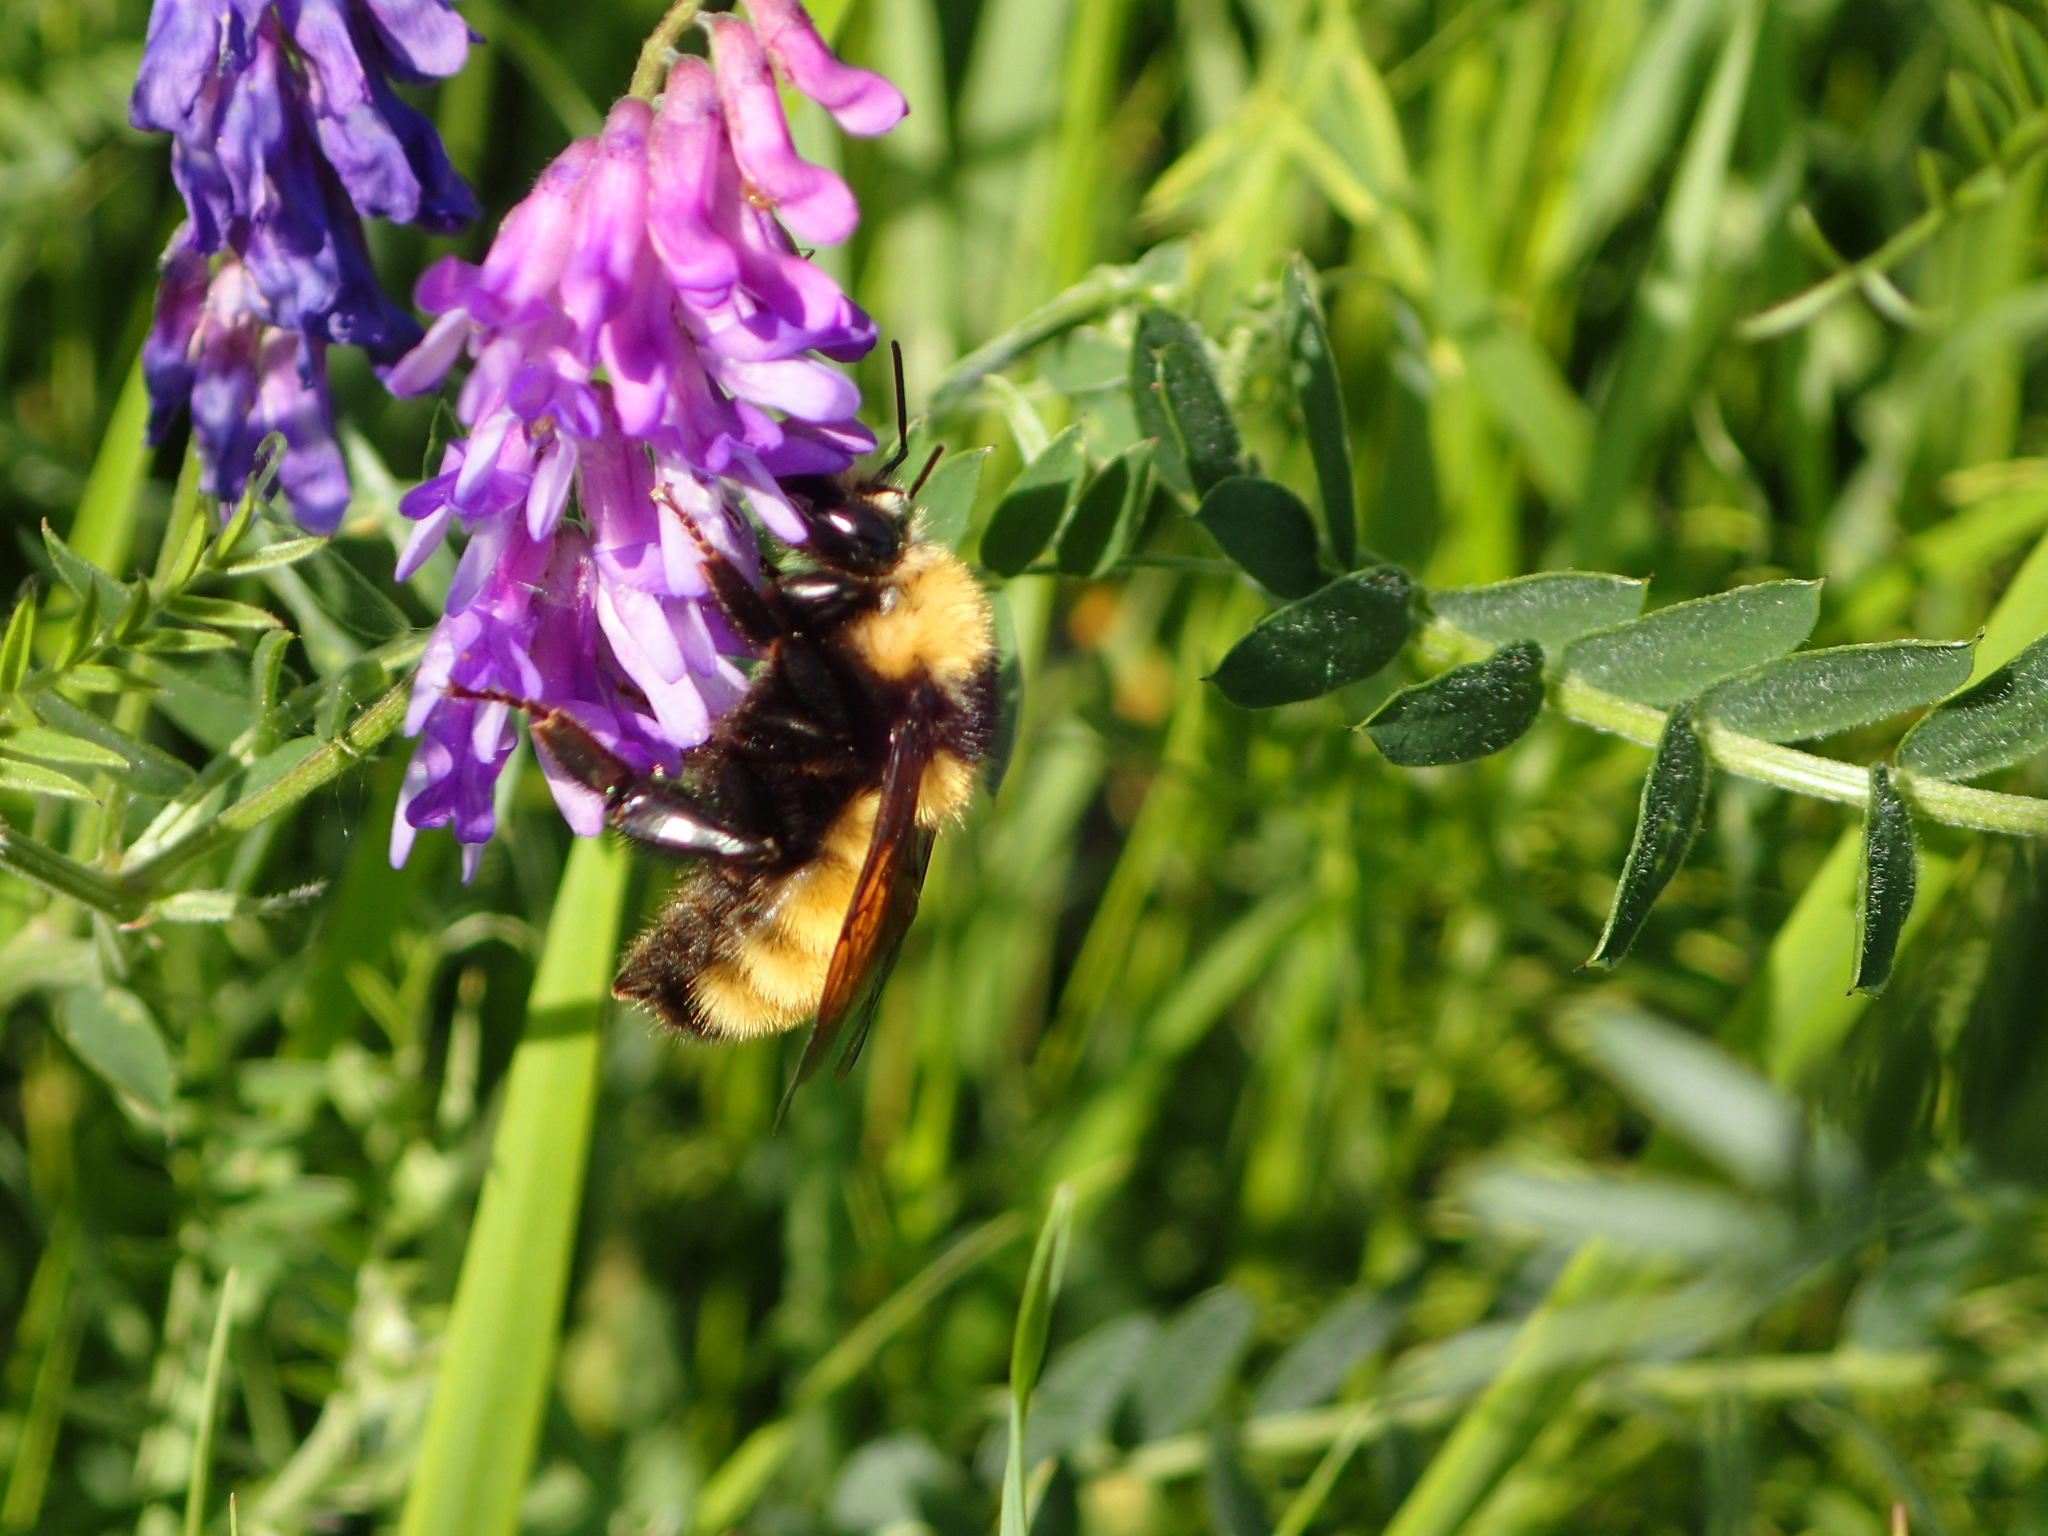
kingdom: Animalia
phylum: Arthropoda
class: Insecta
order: Hymenoptera
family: Apidae
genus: Bombus
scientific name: Bombus borealis
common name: Northern amber bumble bee
